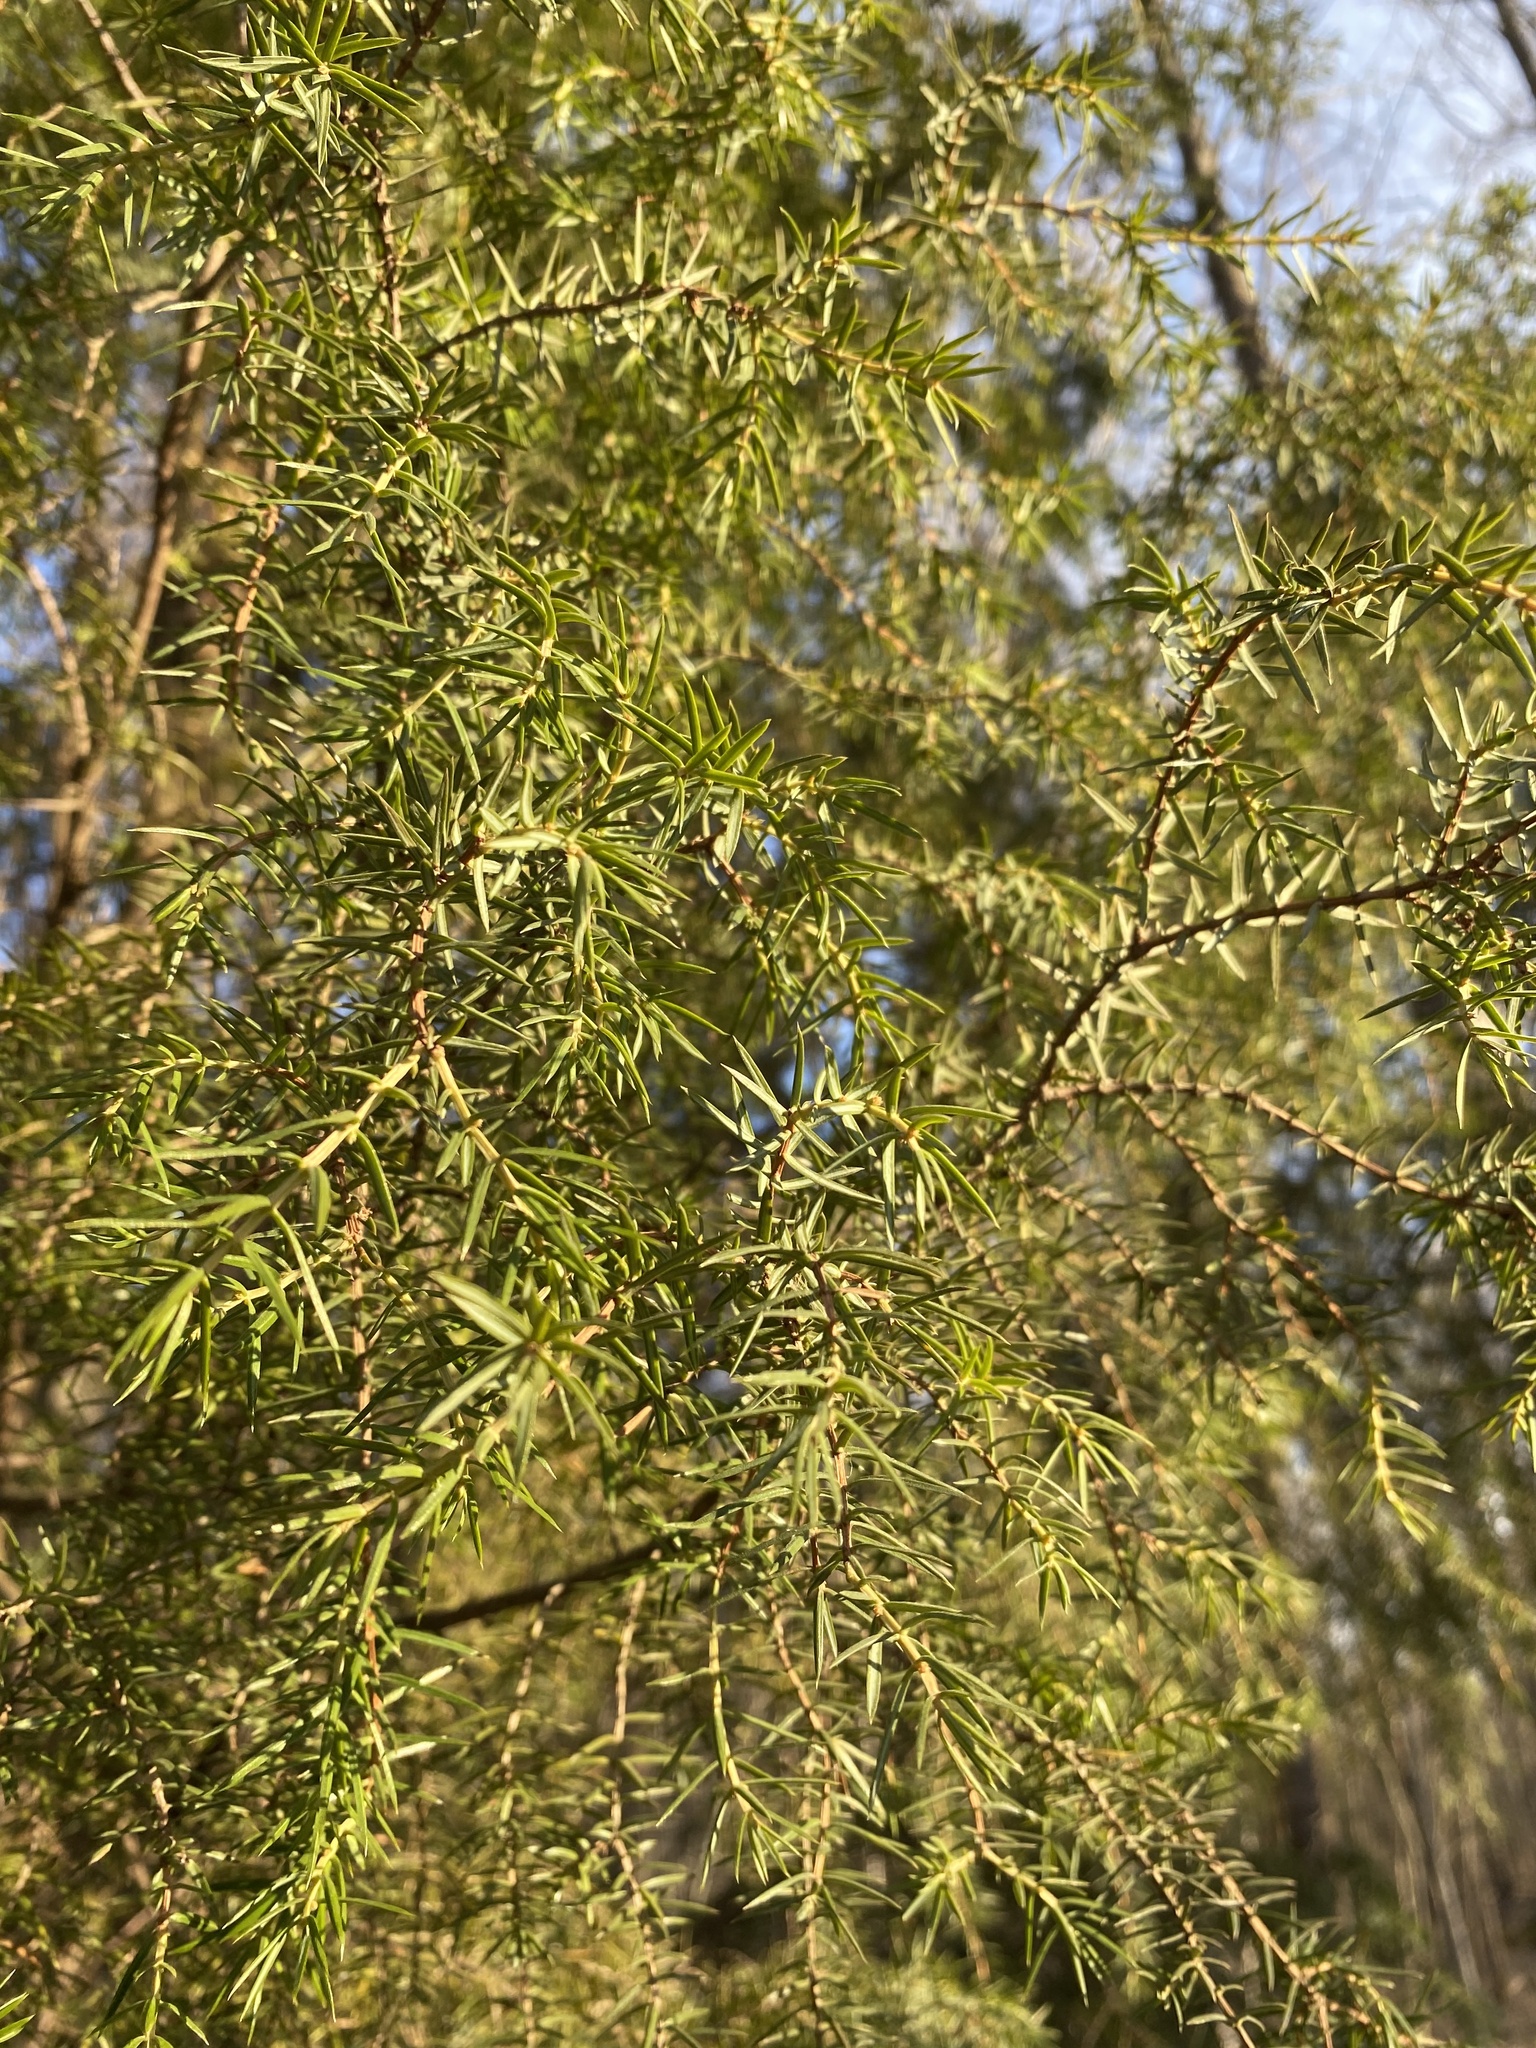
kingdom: Plantae
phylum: Tracheophyta
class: Pinopsida
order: Pinales
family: Cupressaceae
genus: Juniperus
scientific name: Juniperus communis
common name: Common juniper
